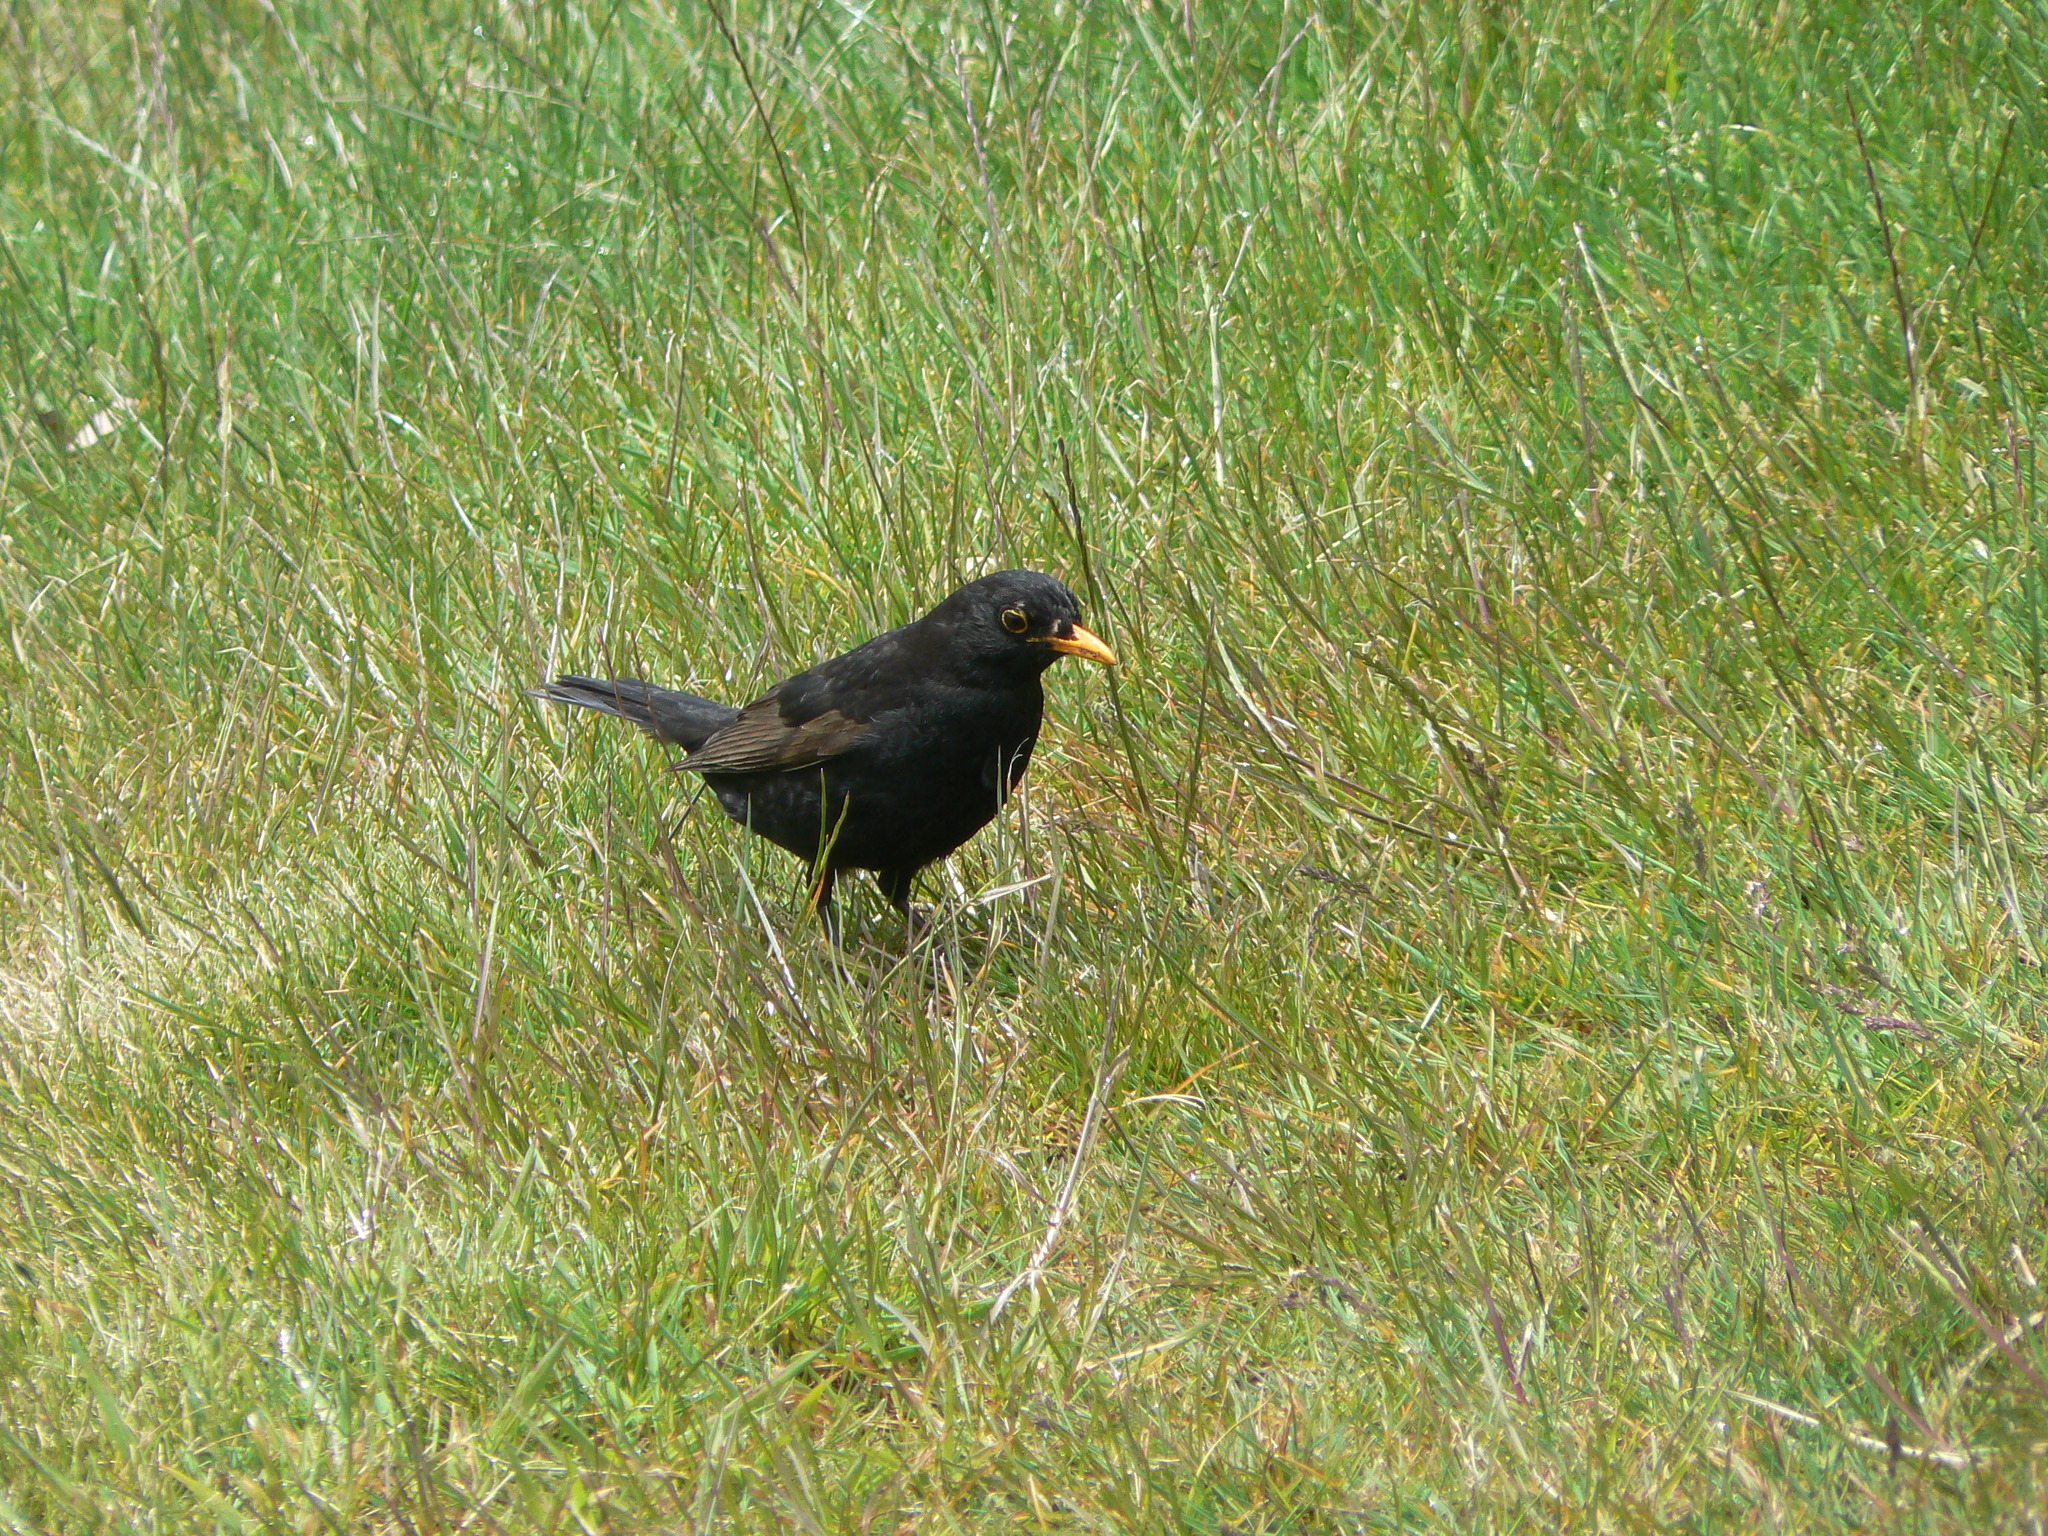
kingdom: Animalia
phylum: Chordata
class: Aves
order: Passeriformes
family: Turdidae
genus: Turdus
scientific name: Turdus merula
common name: Common blackbird
